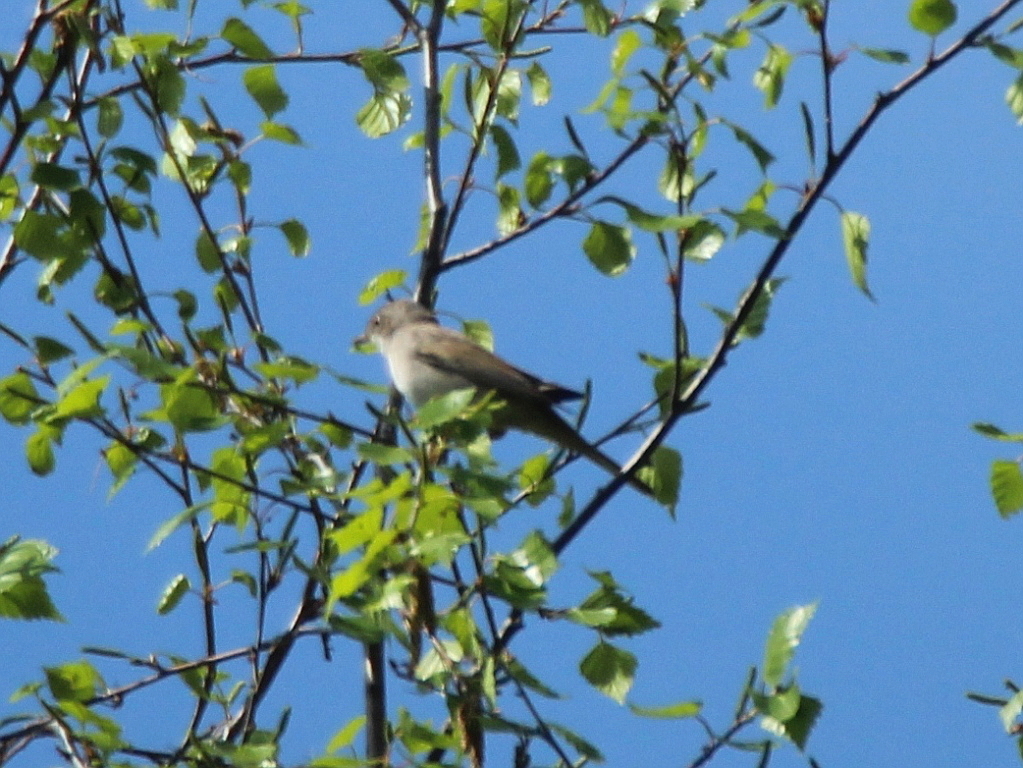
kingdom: Animalia
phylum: Chordata
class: Aves
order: Passeriformes
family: Sylviidae
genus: Sylvia
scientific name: Sylvia communis
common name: Common whitethroat
